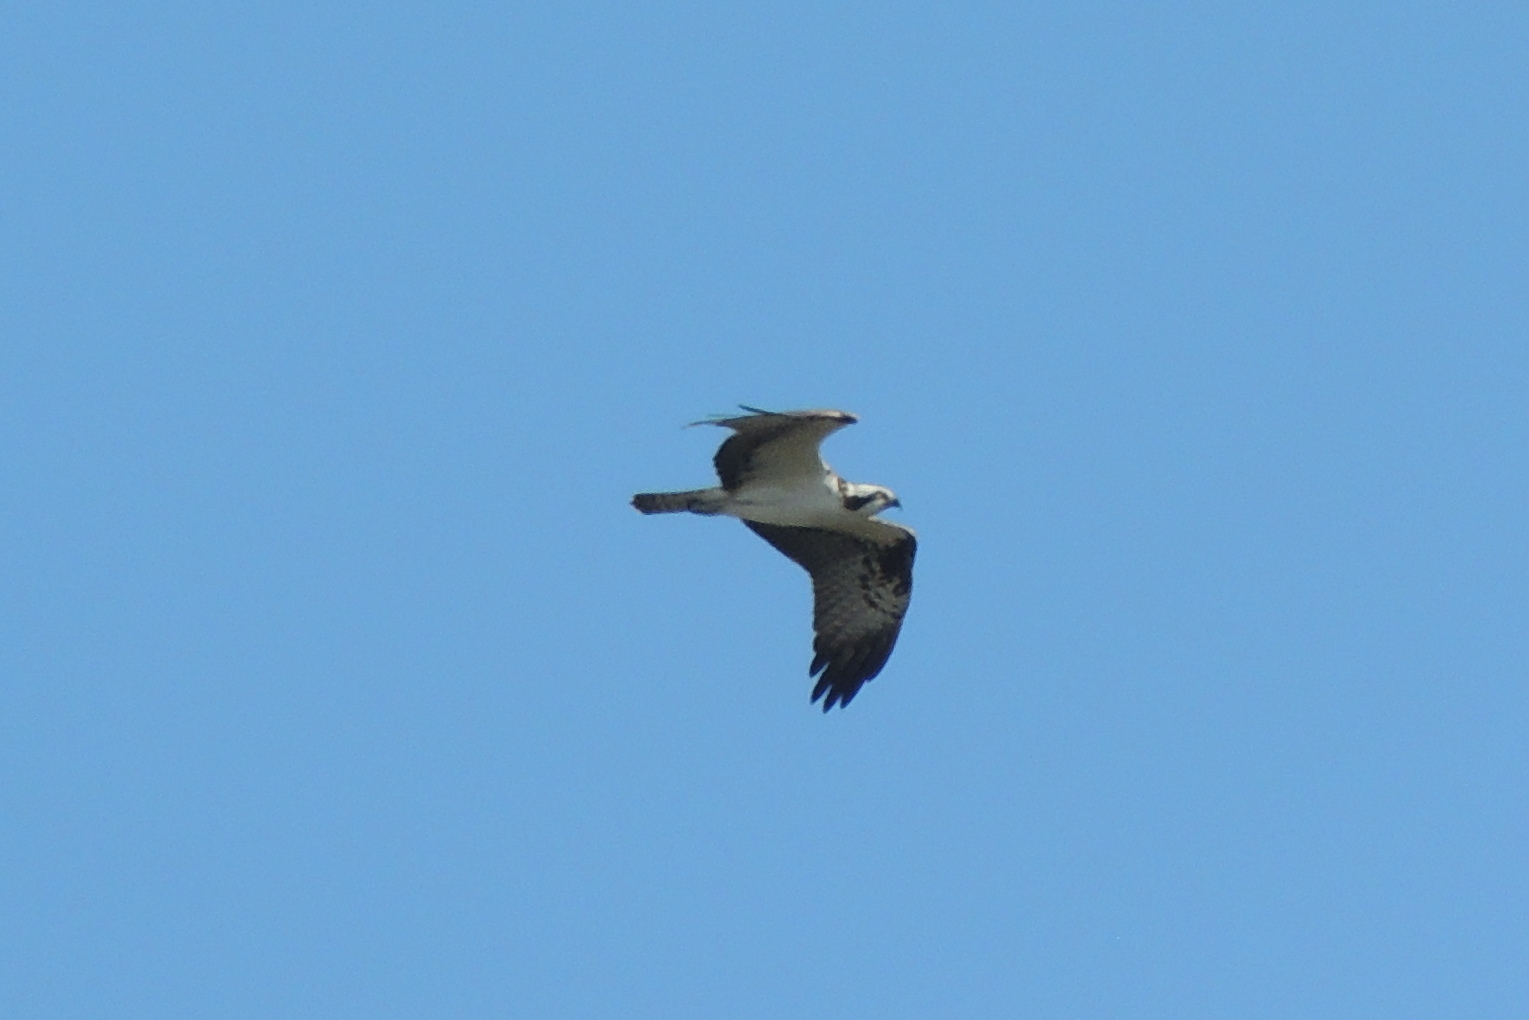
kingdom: Animalia
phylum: Chordata
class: Aves
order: Accipitriformes
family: Pandionidae
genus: Pandion
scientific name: Pandion haliaetus
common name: Osprey
